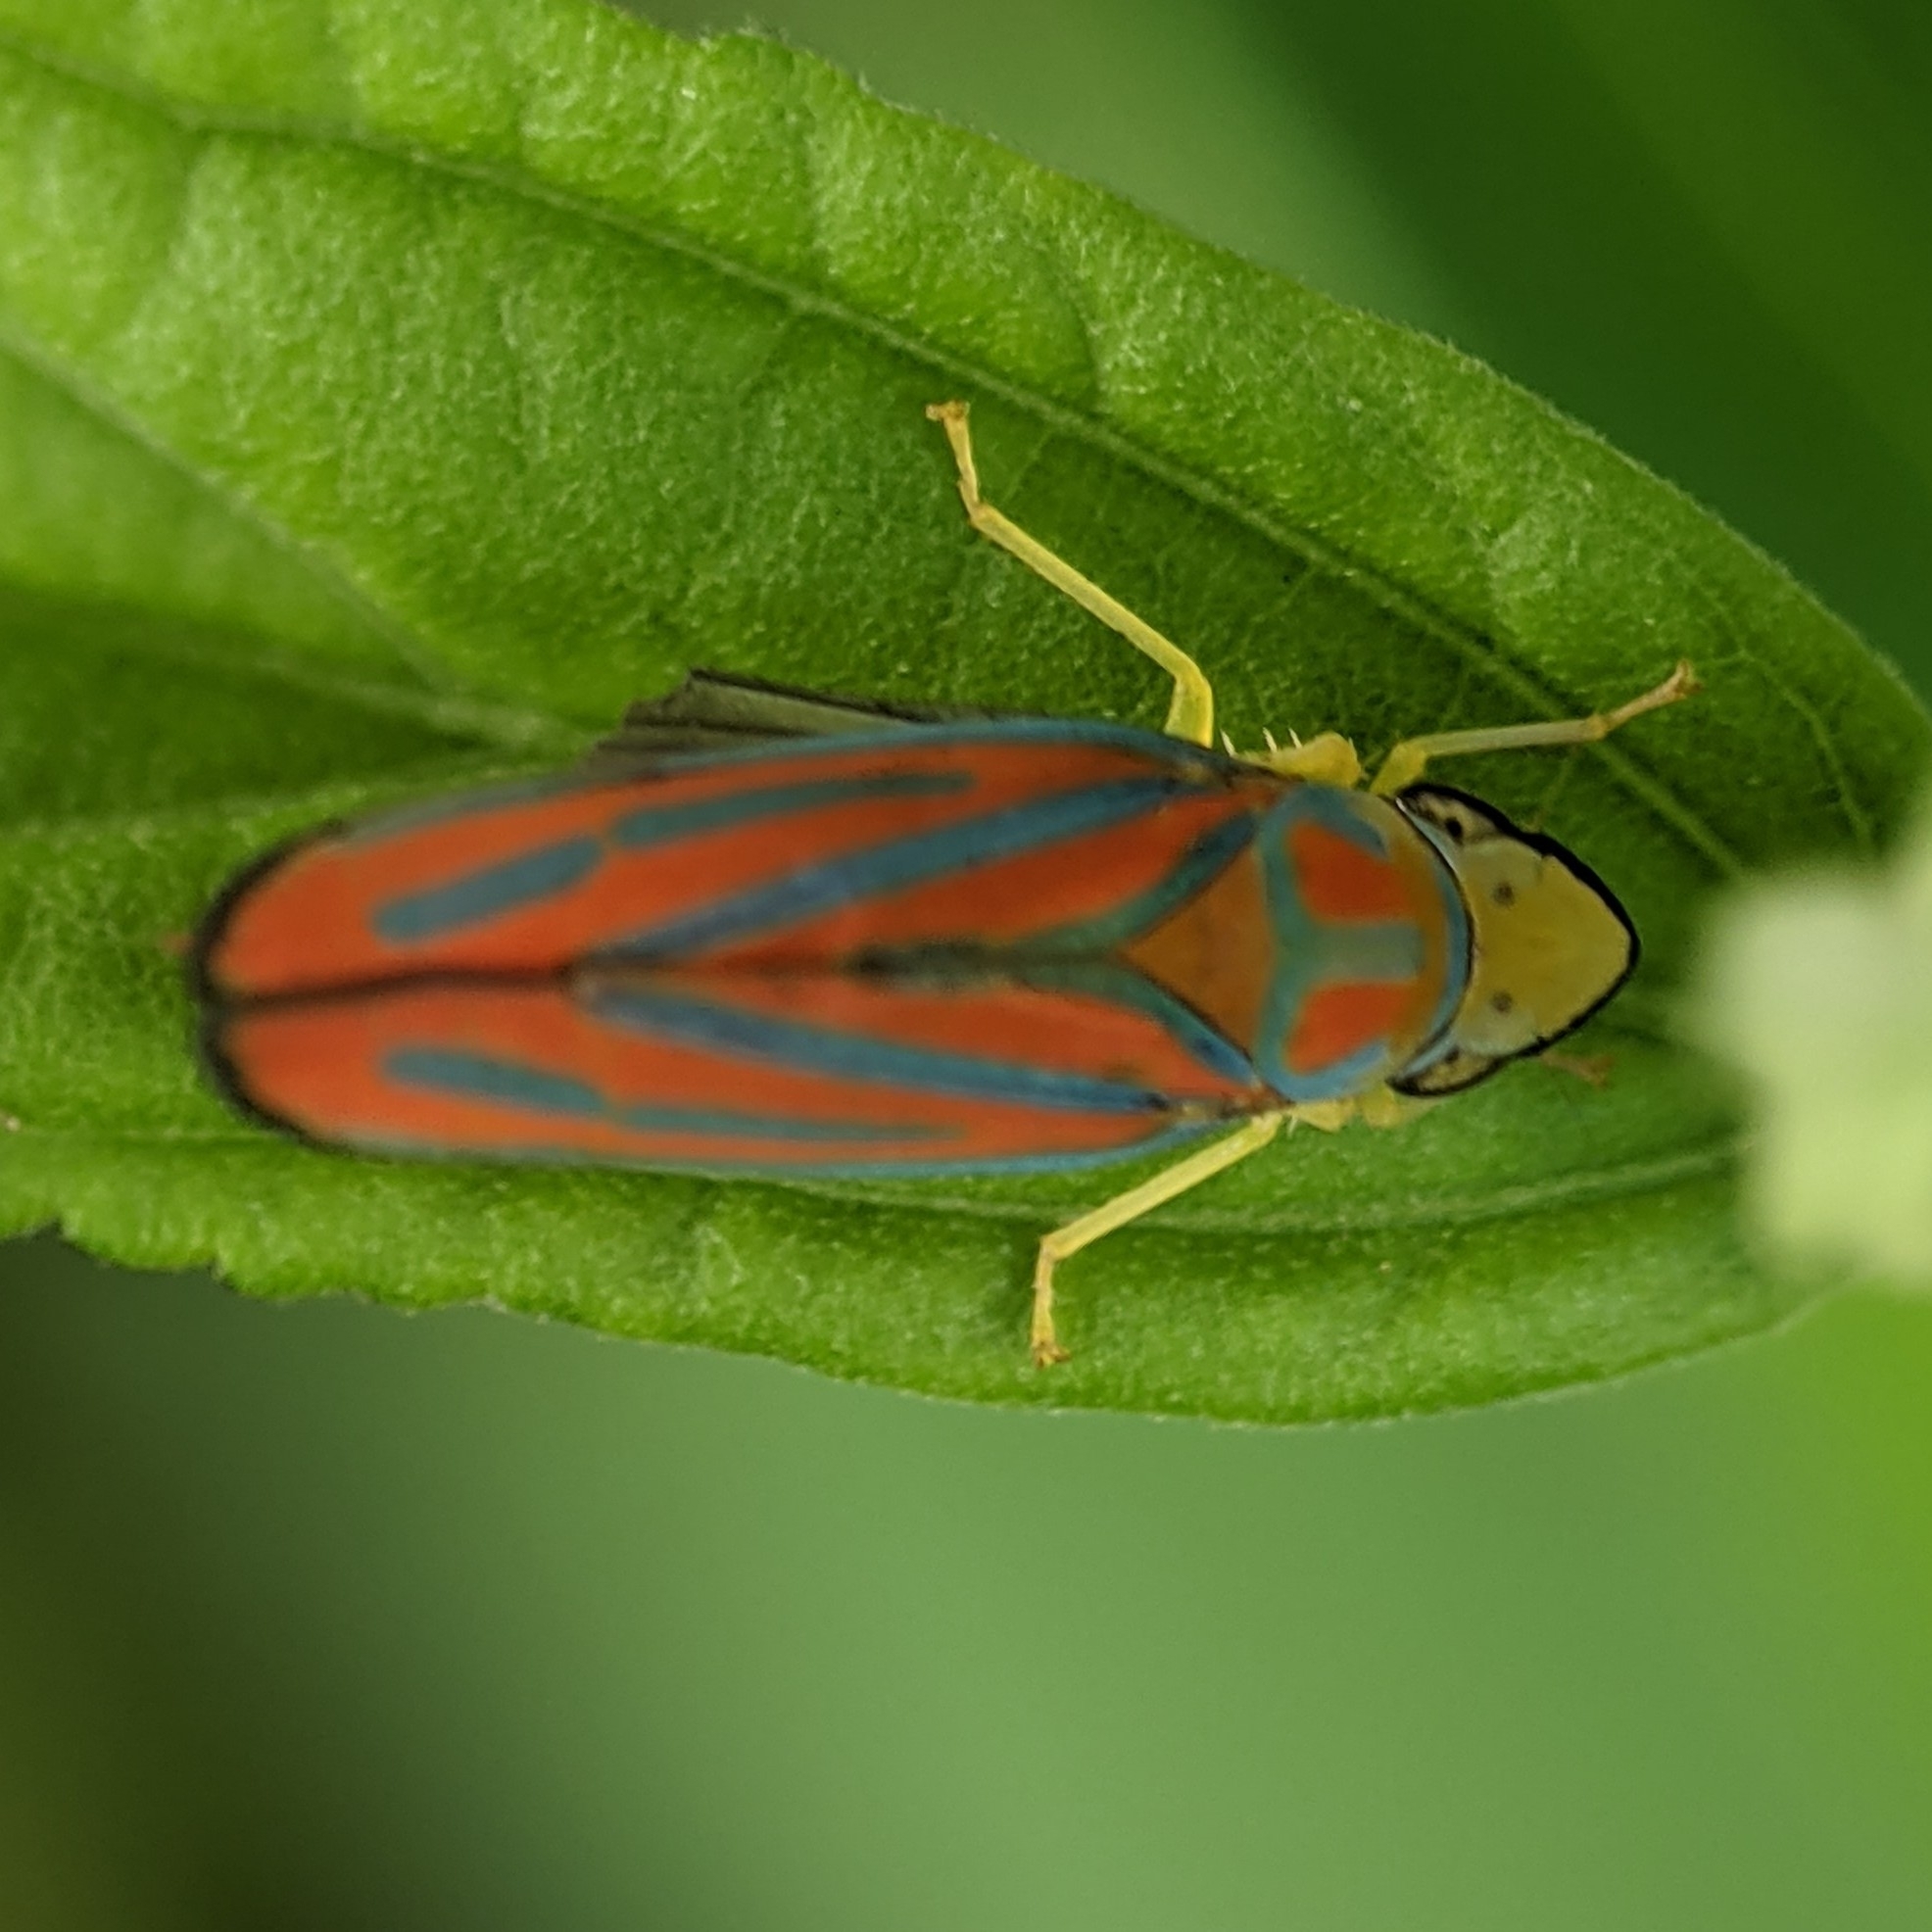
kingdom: Animalia
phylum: Arthropoda
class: Insecta
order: Hemiptera
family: Cicadellidae
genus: Graphocephala
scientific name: Graphocephala coccinea
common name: Candy-striped leafhopper
